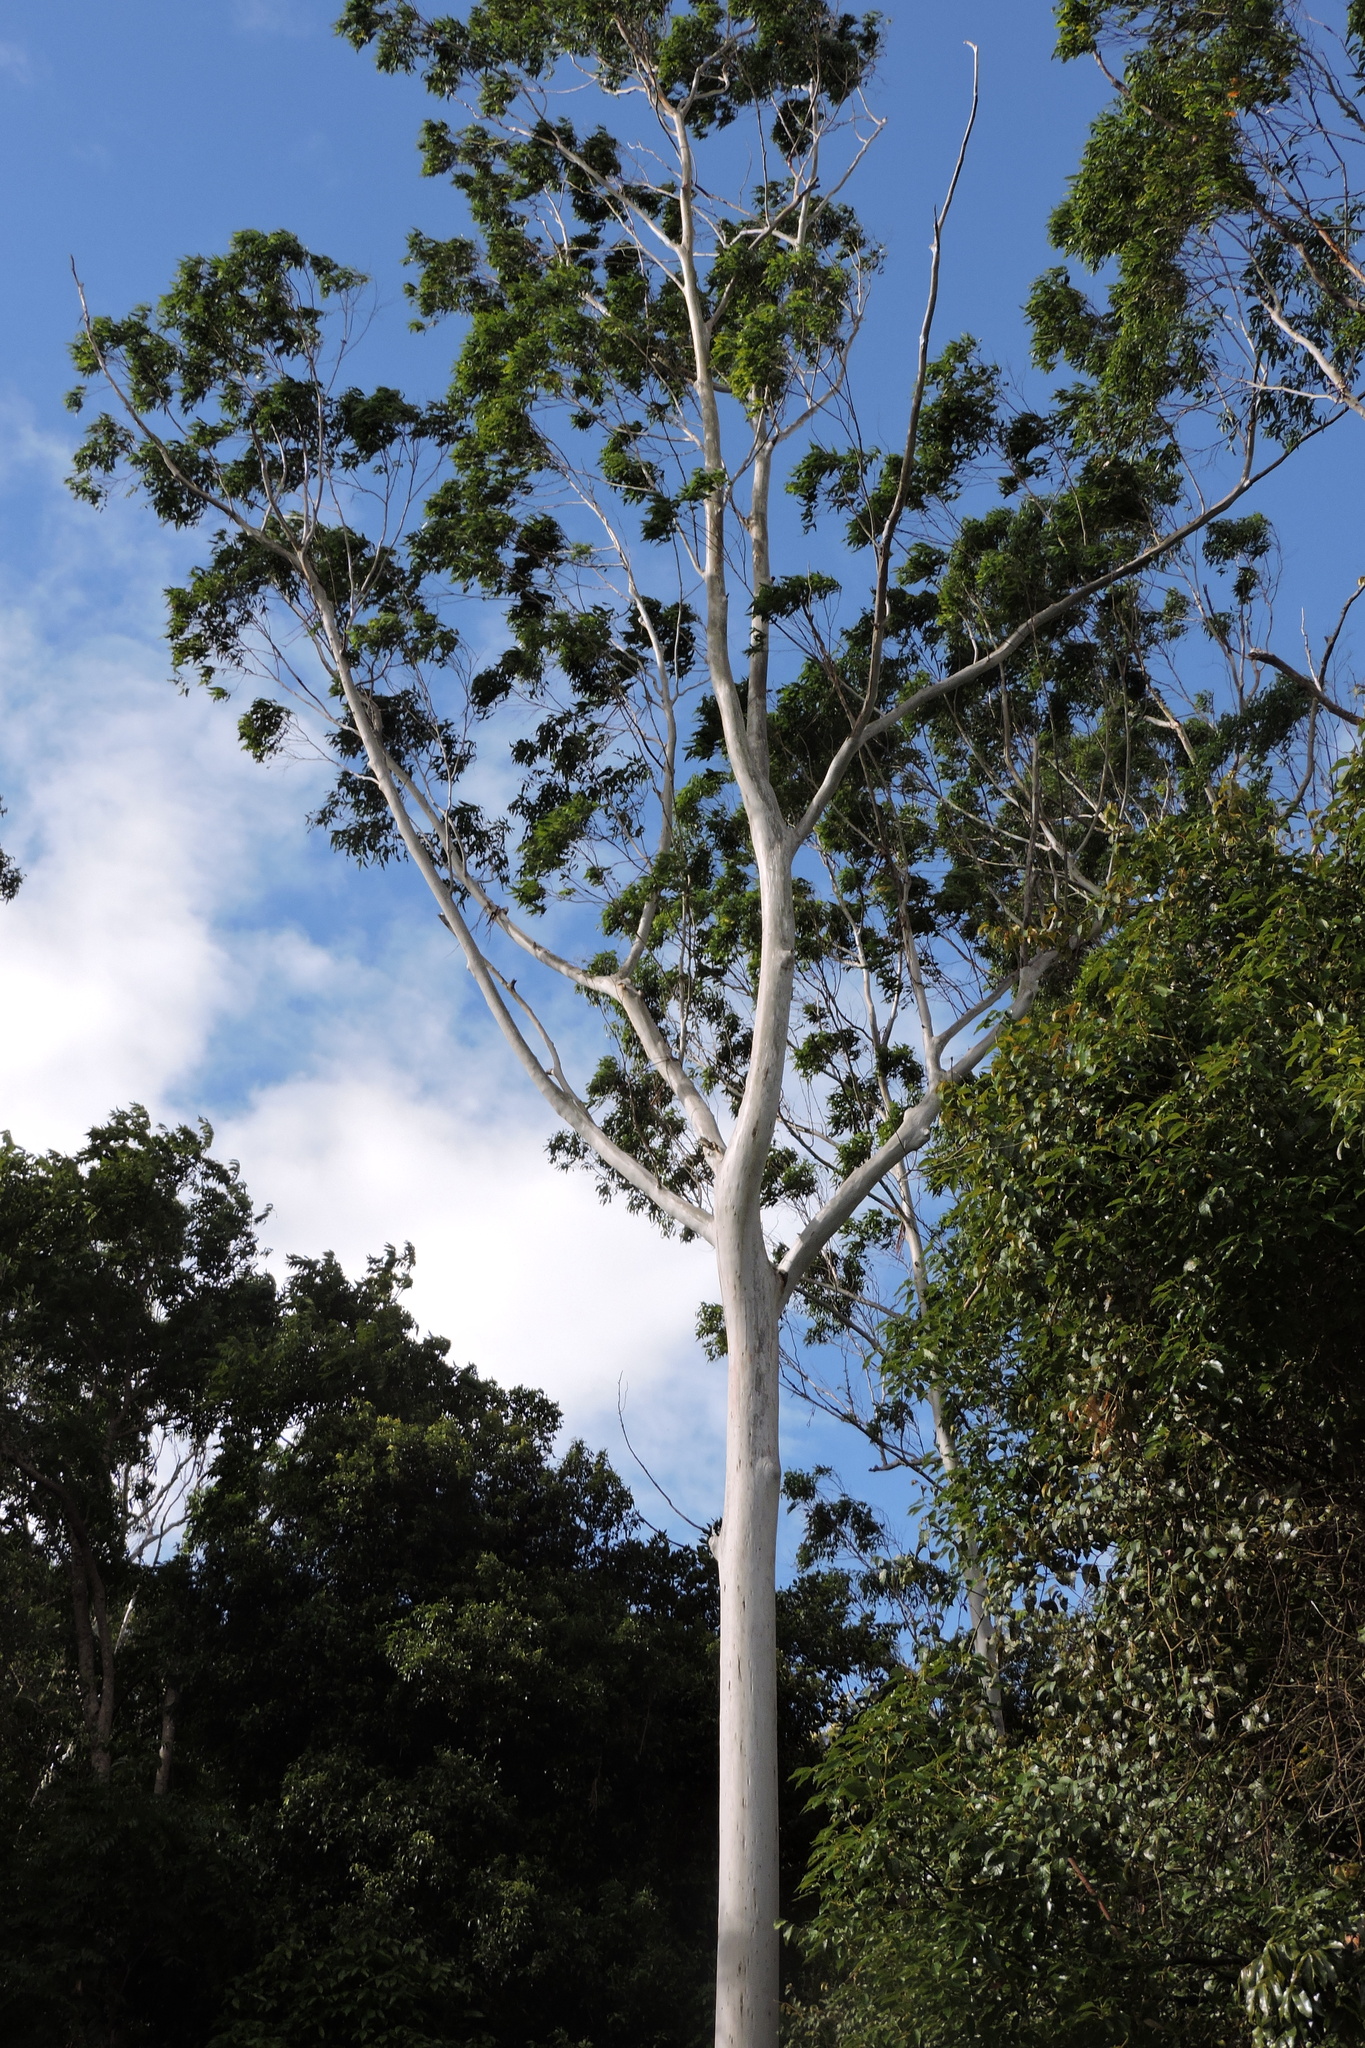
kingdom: Plantae
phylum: Tracheophyta
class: Magnoliopsida
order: Myrtales
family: Myrtaceae
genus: Eucalyptus
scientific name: Eucalyptus grandis
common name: Grand eucalyptus
